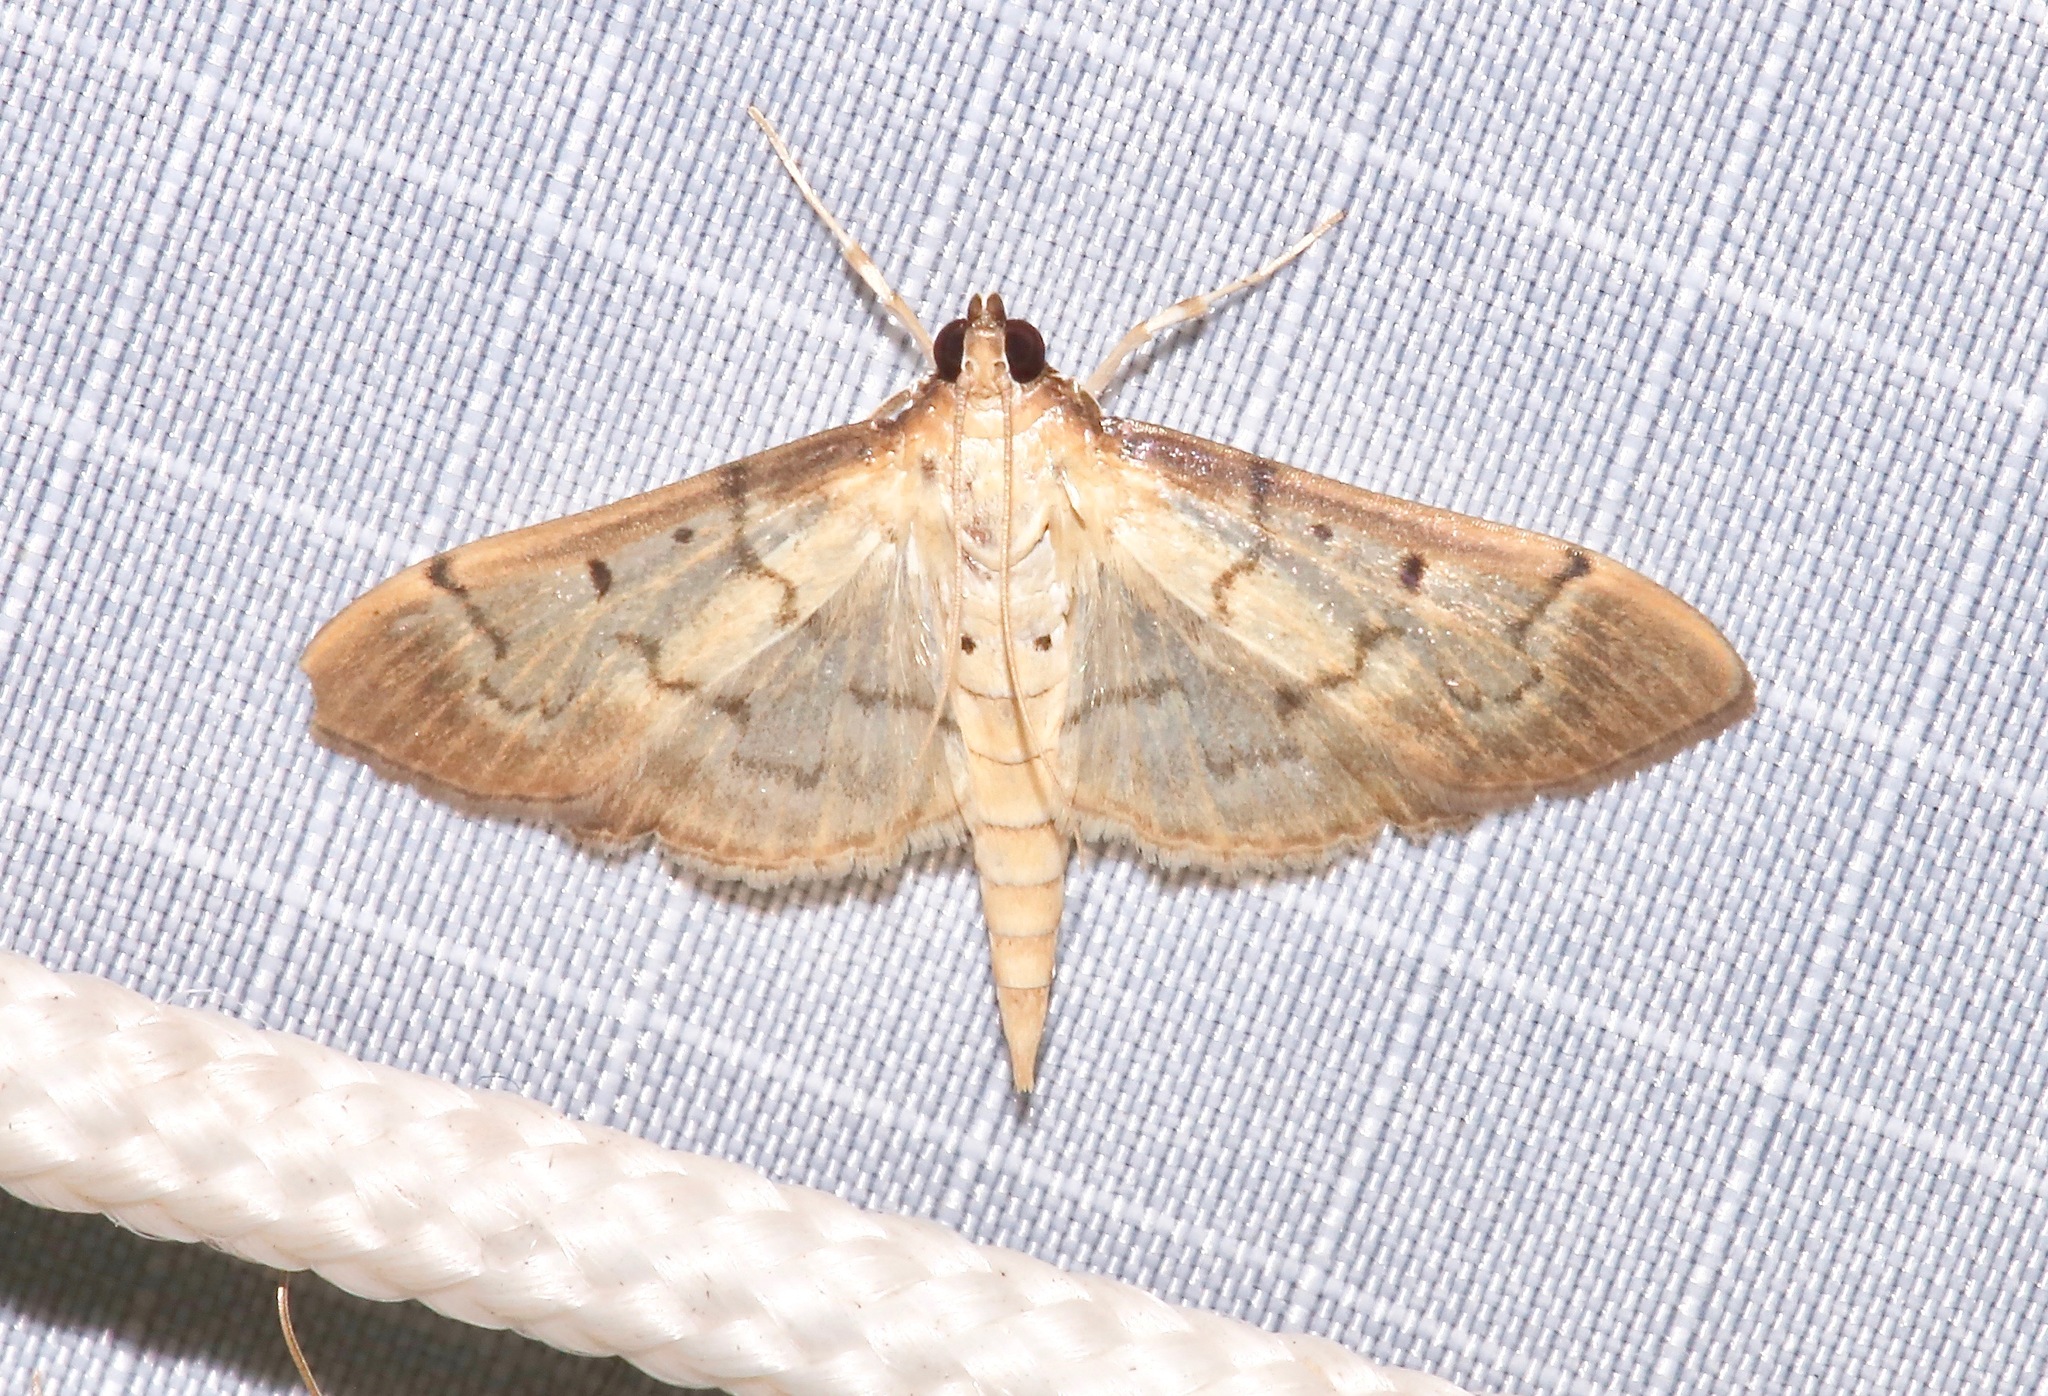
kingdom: Animalia
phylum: Arthropoda
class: Insecta
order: Lepidoptera
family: Crambidae
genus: Herpetogramma
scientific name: Herpetogramma bipunctalis
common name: Southern beet webworm
